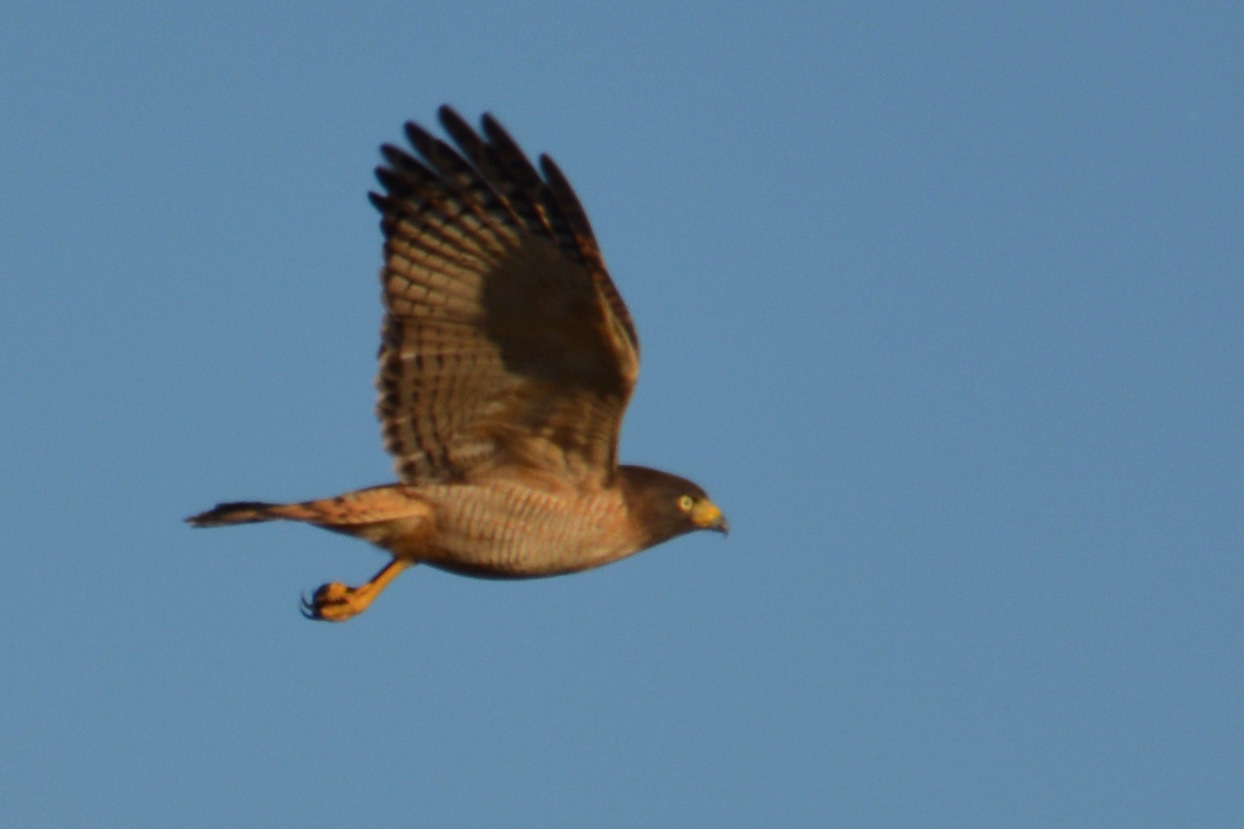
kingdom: Animalia
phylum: Chordata
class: Aves
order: Accipitriformes
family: Accipitridae
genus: Rupornis
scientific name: Rupornis magnirostris
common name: Roadside hawk
